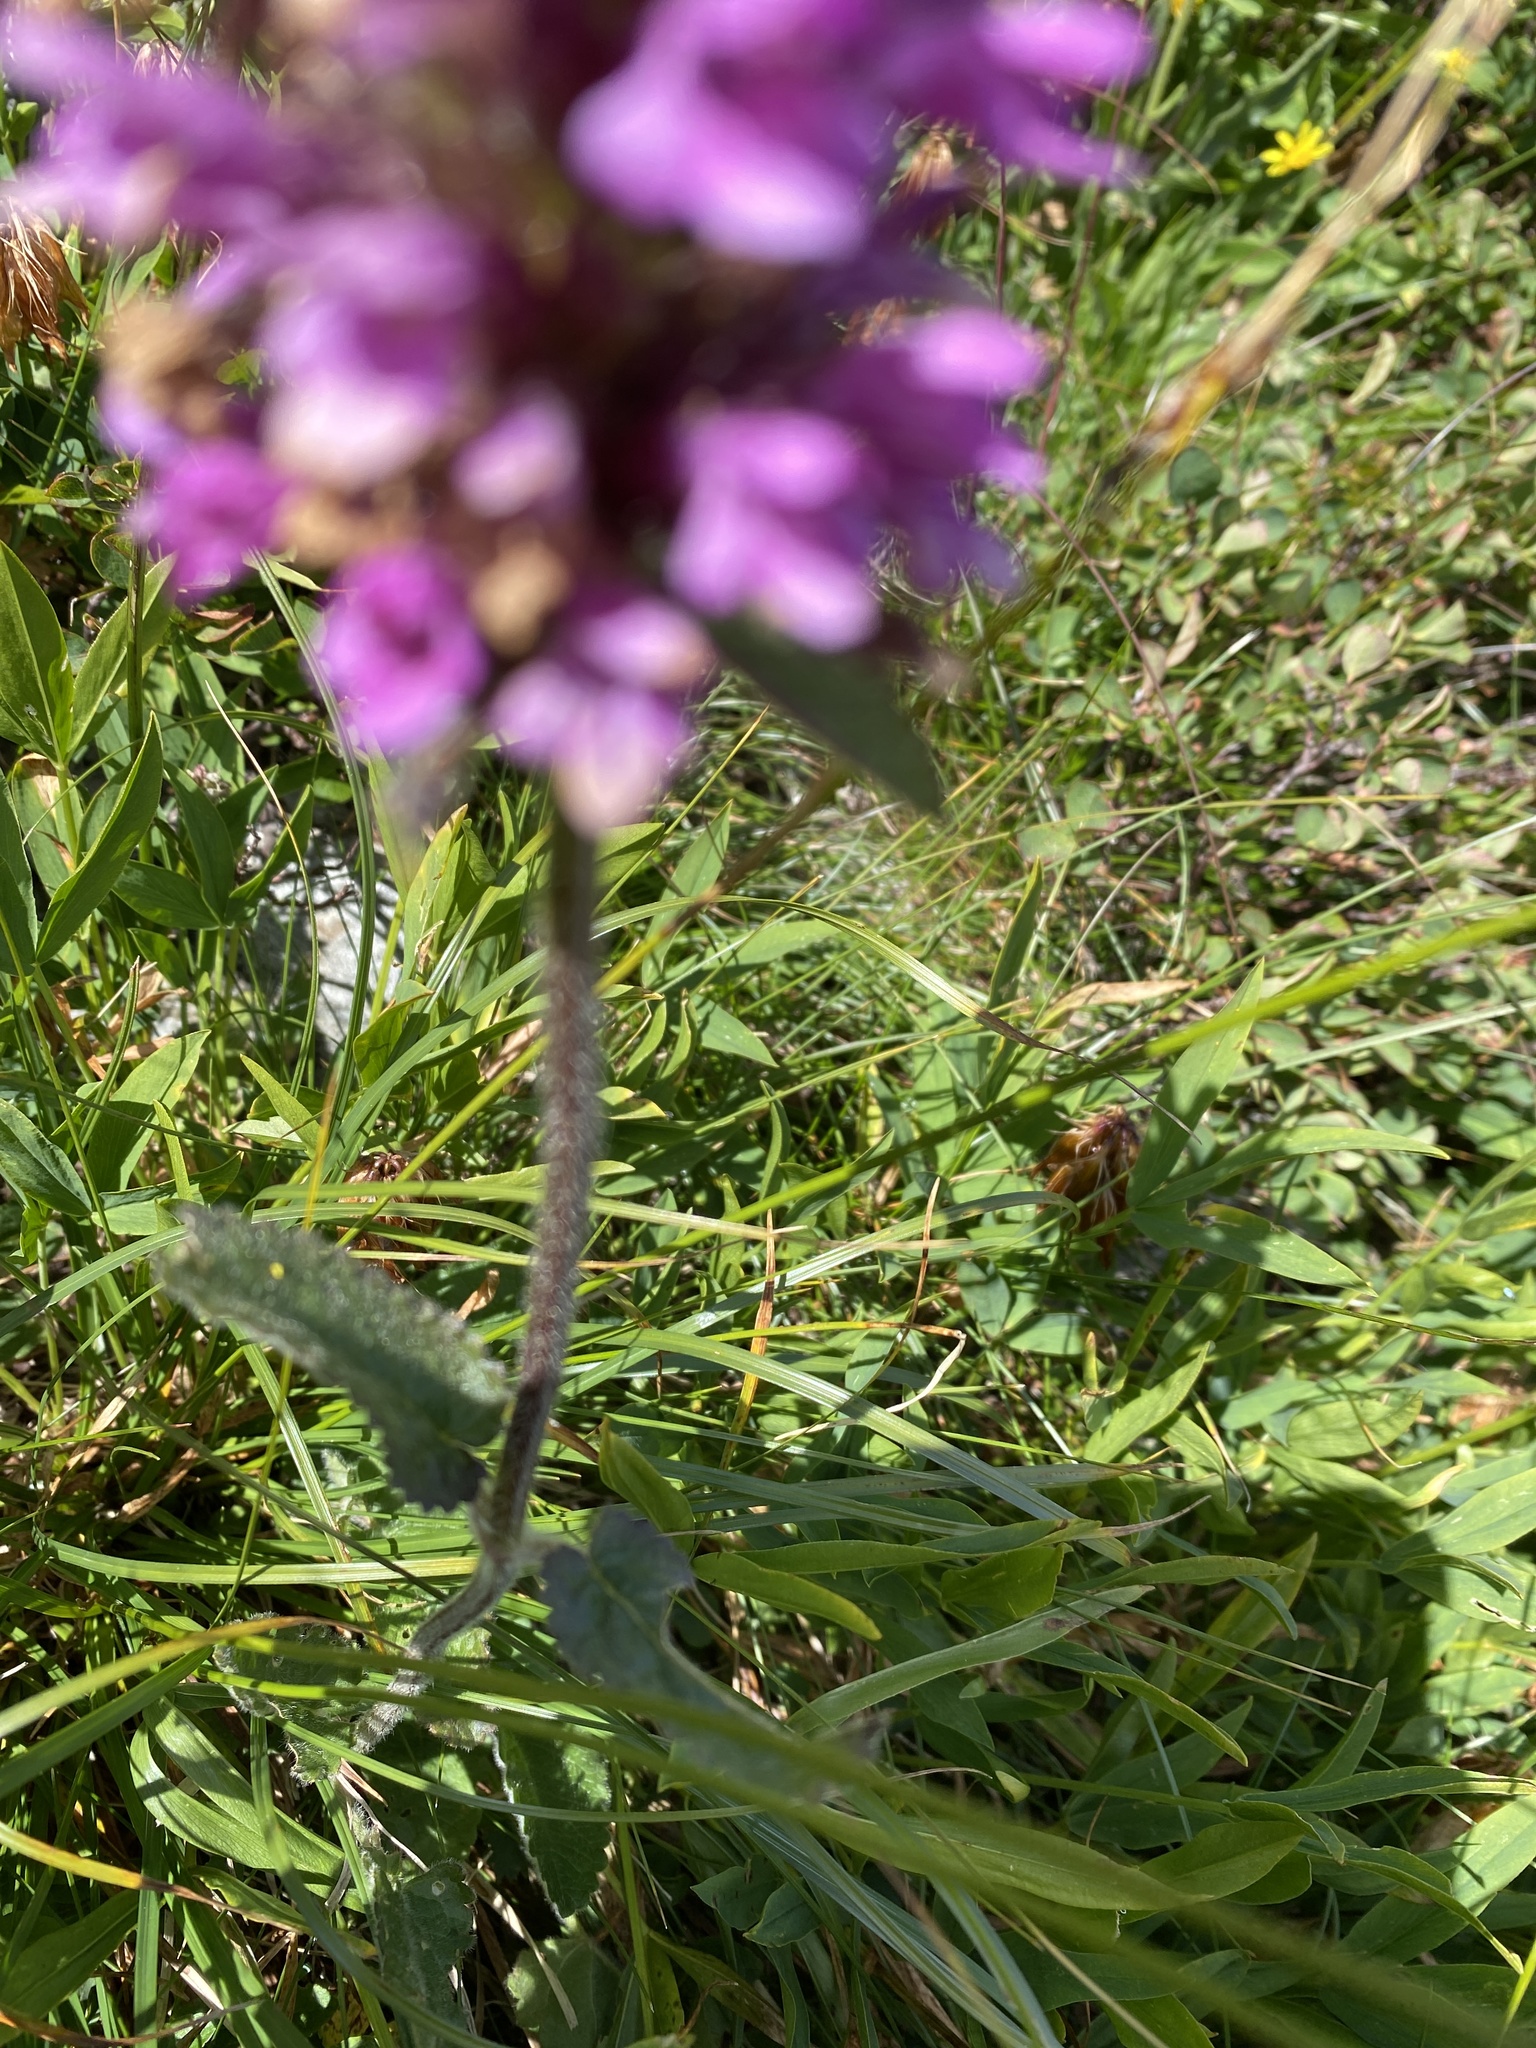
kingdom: Plantae
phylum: Tracheophyta
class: Magnoliopsida
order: Lamiales
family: Lamiaceae
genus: Betonica
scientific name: Betonica hirsuta
